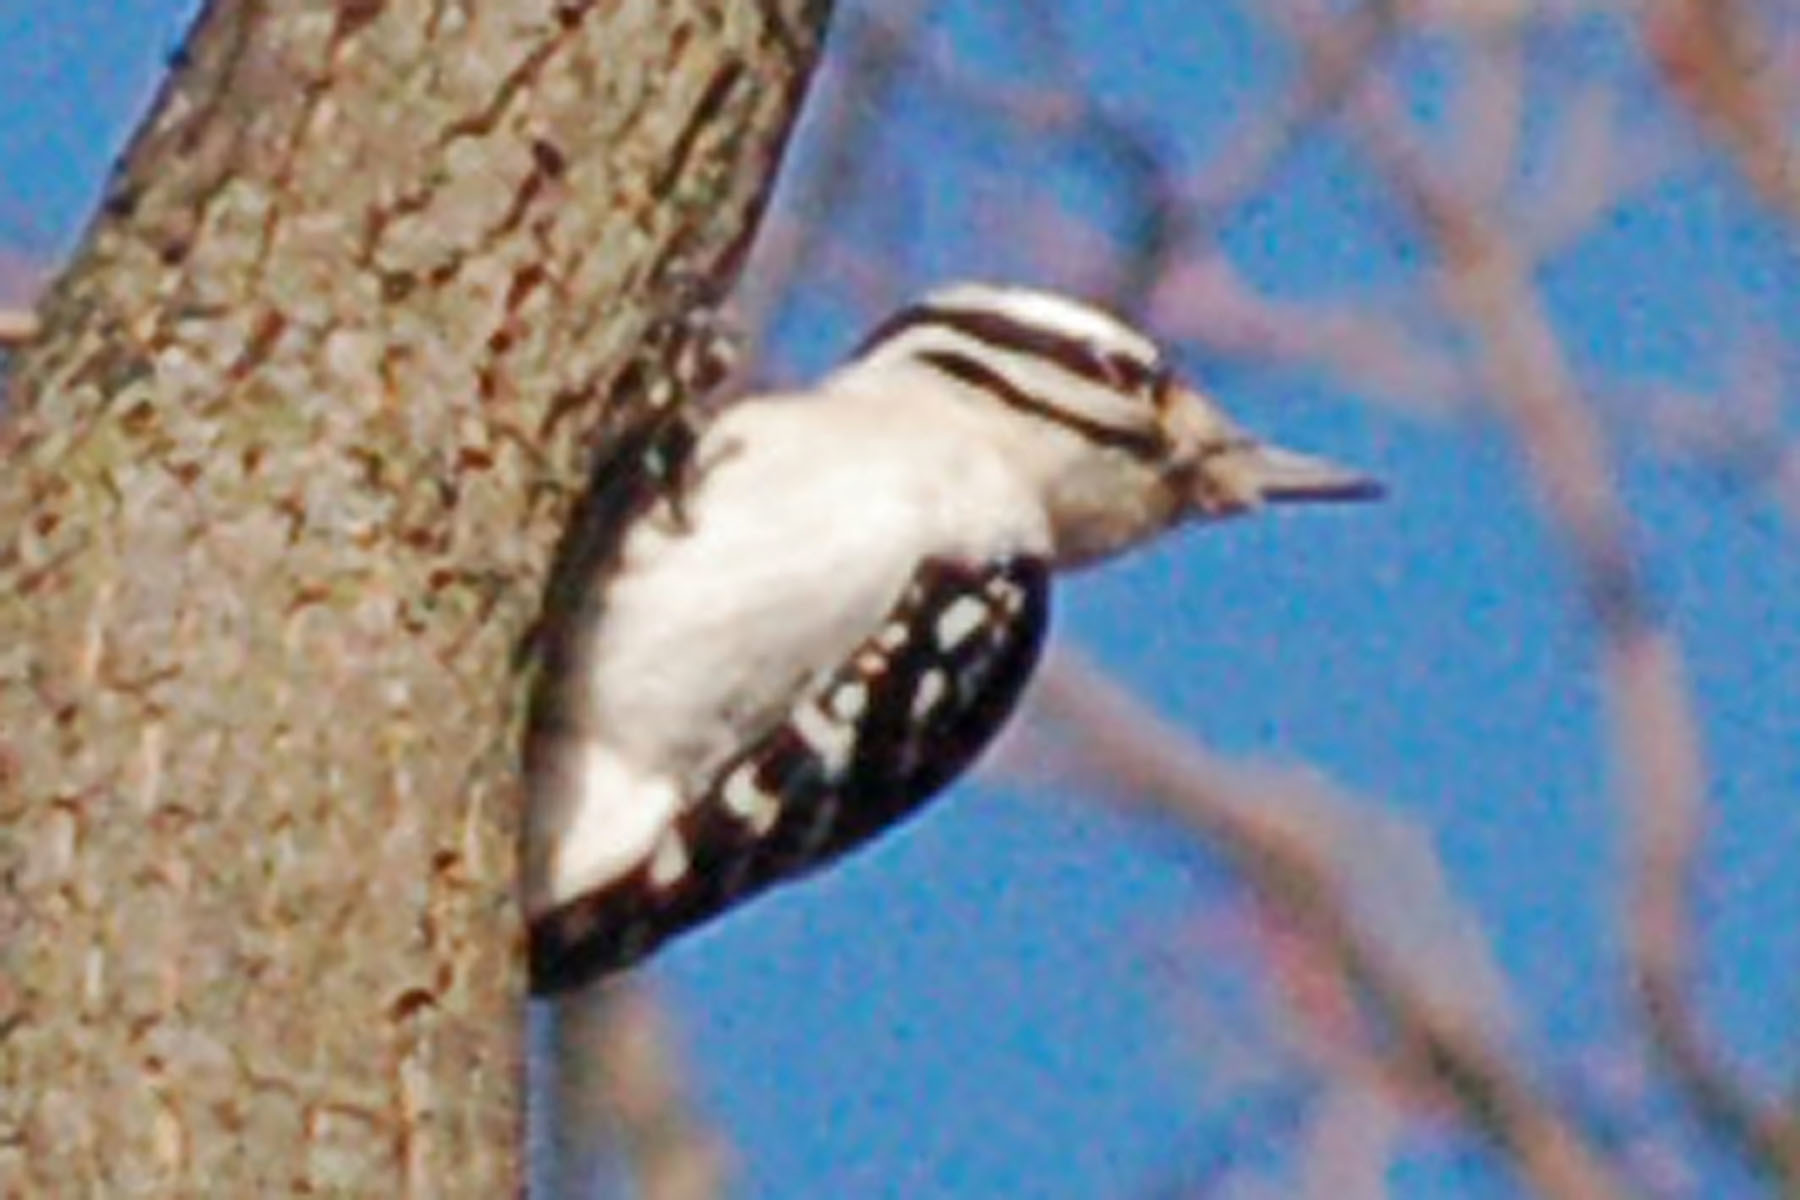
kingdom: Animalia
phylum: Chordata
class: Aves
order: Piciformes
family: Picidae
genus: Dryobates
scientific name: Dryobates pubescens
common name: Downy woodpecker
